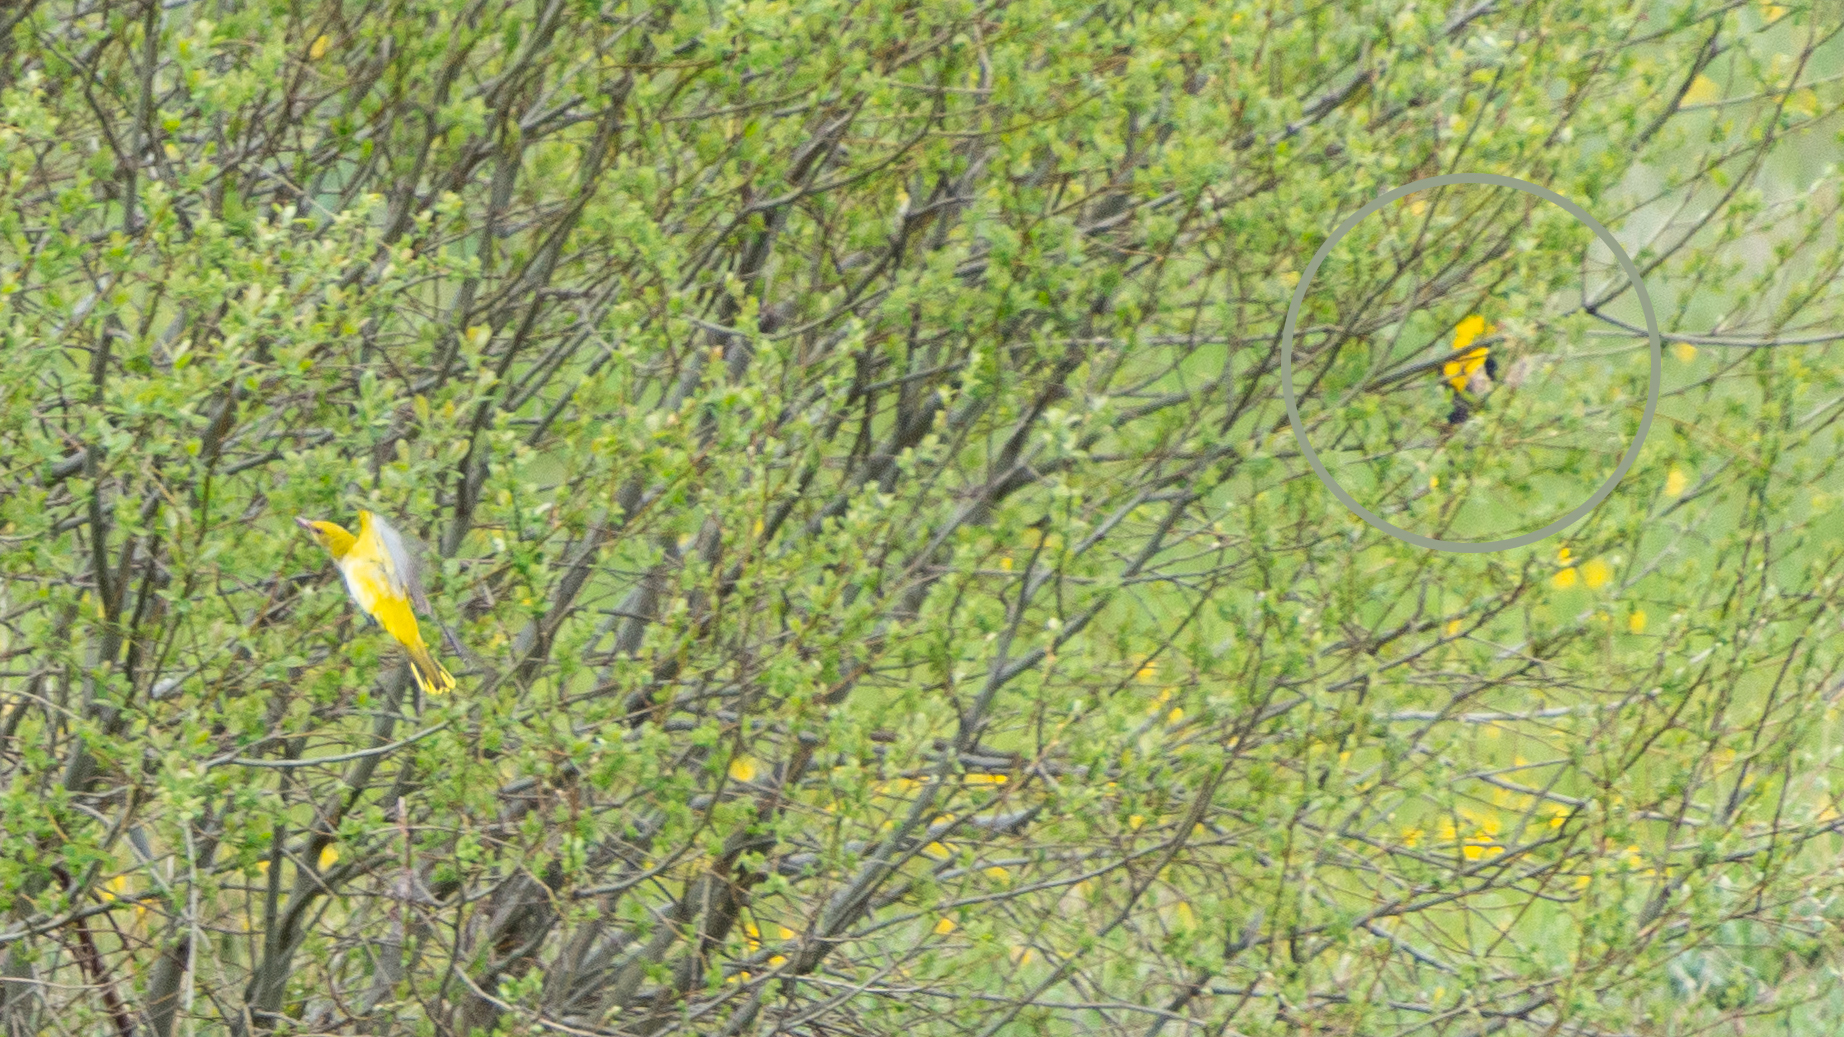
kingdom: Animalia
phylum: Chordata
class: Aves
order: Passeriformes
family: Oriolidae
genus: Oriolus
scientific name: Oriolus oriolus
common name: Eurasian golden oriole
